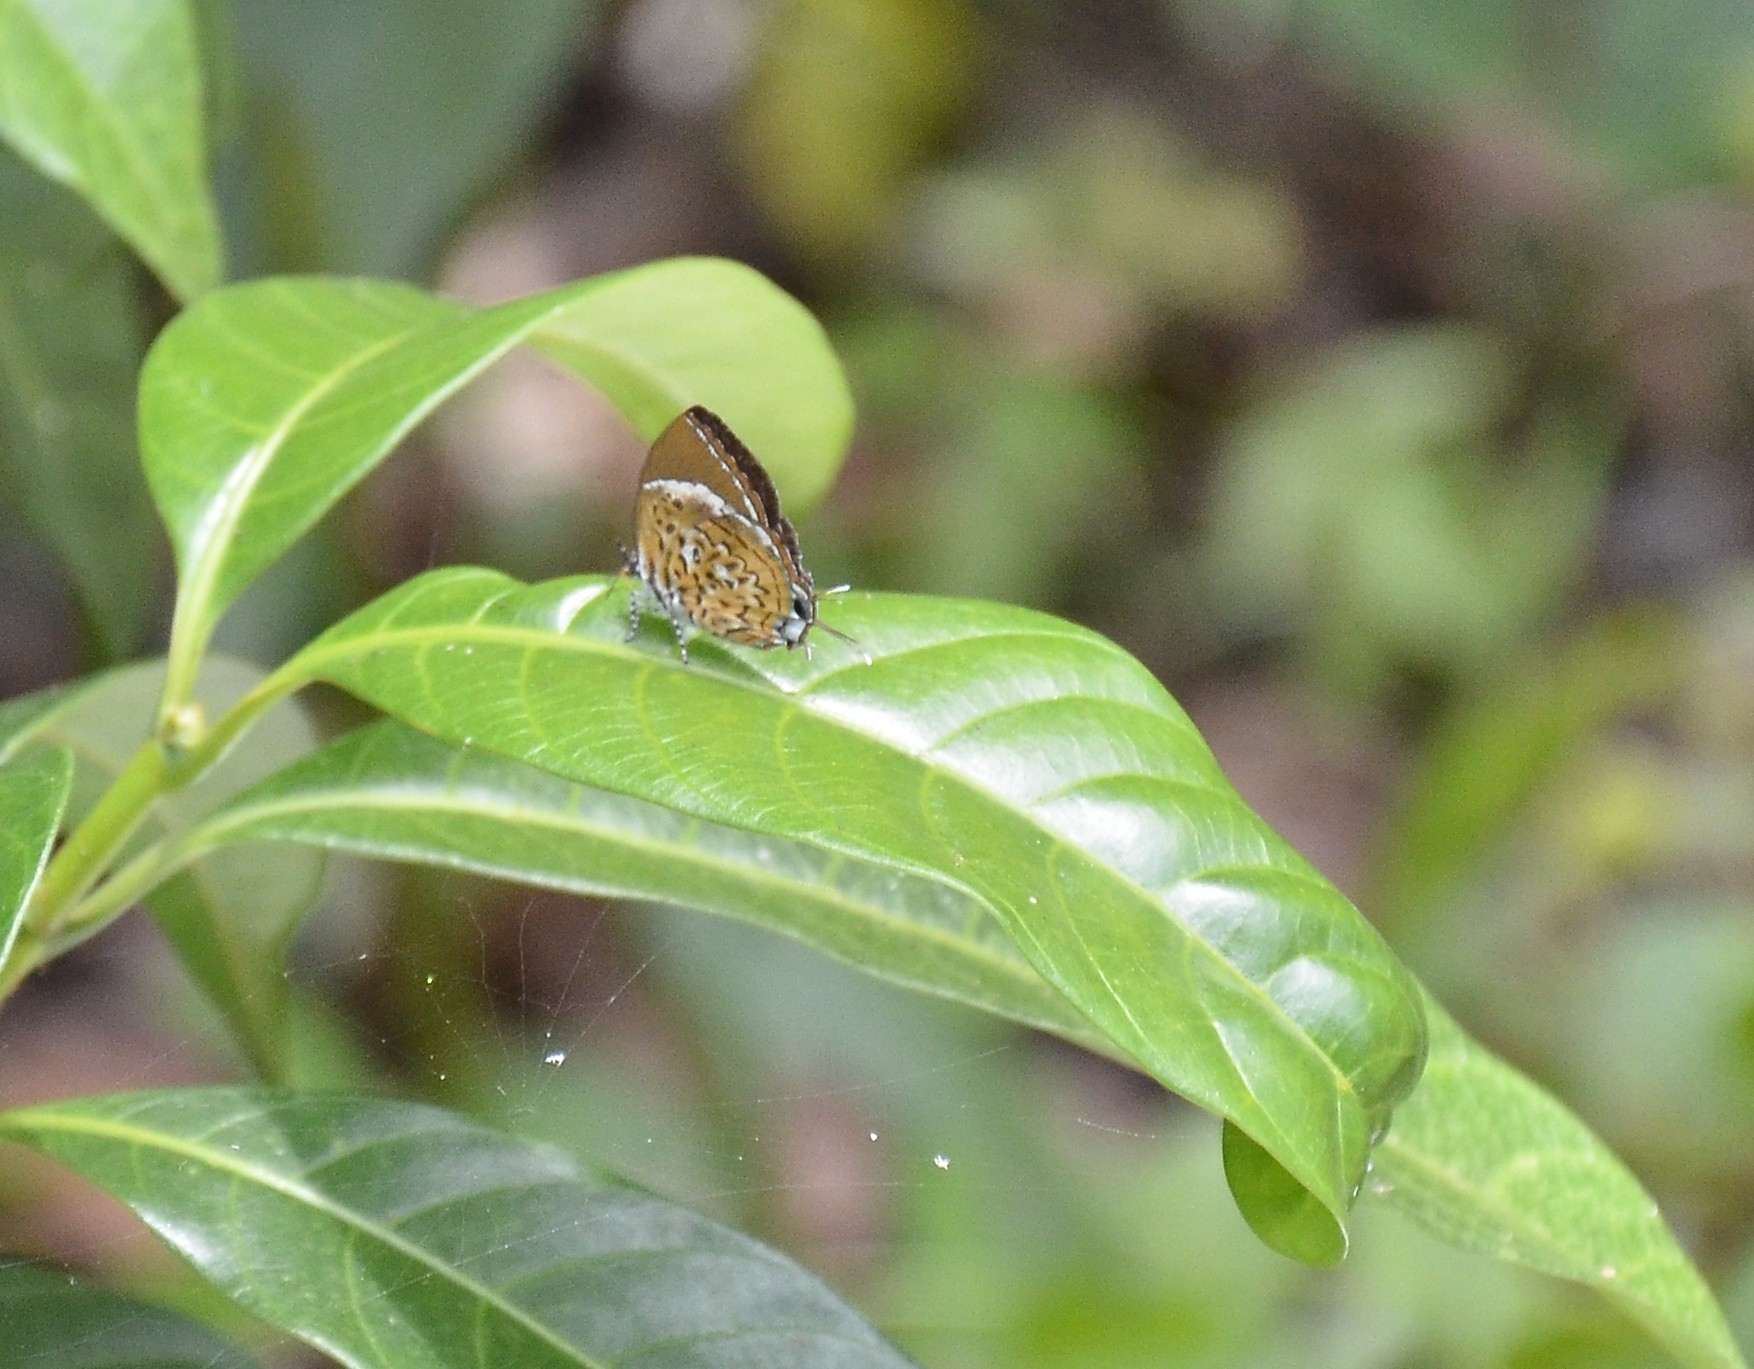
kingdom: Animalia
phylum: Arthropoda
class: Insecta
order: Lepidoptera
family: Lycaenidae
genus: Rathinda
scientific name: Rathinda amor
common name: Monkey puzzle
